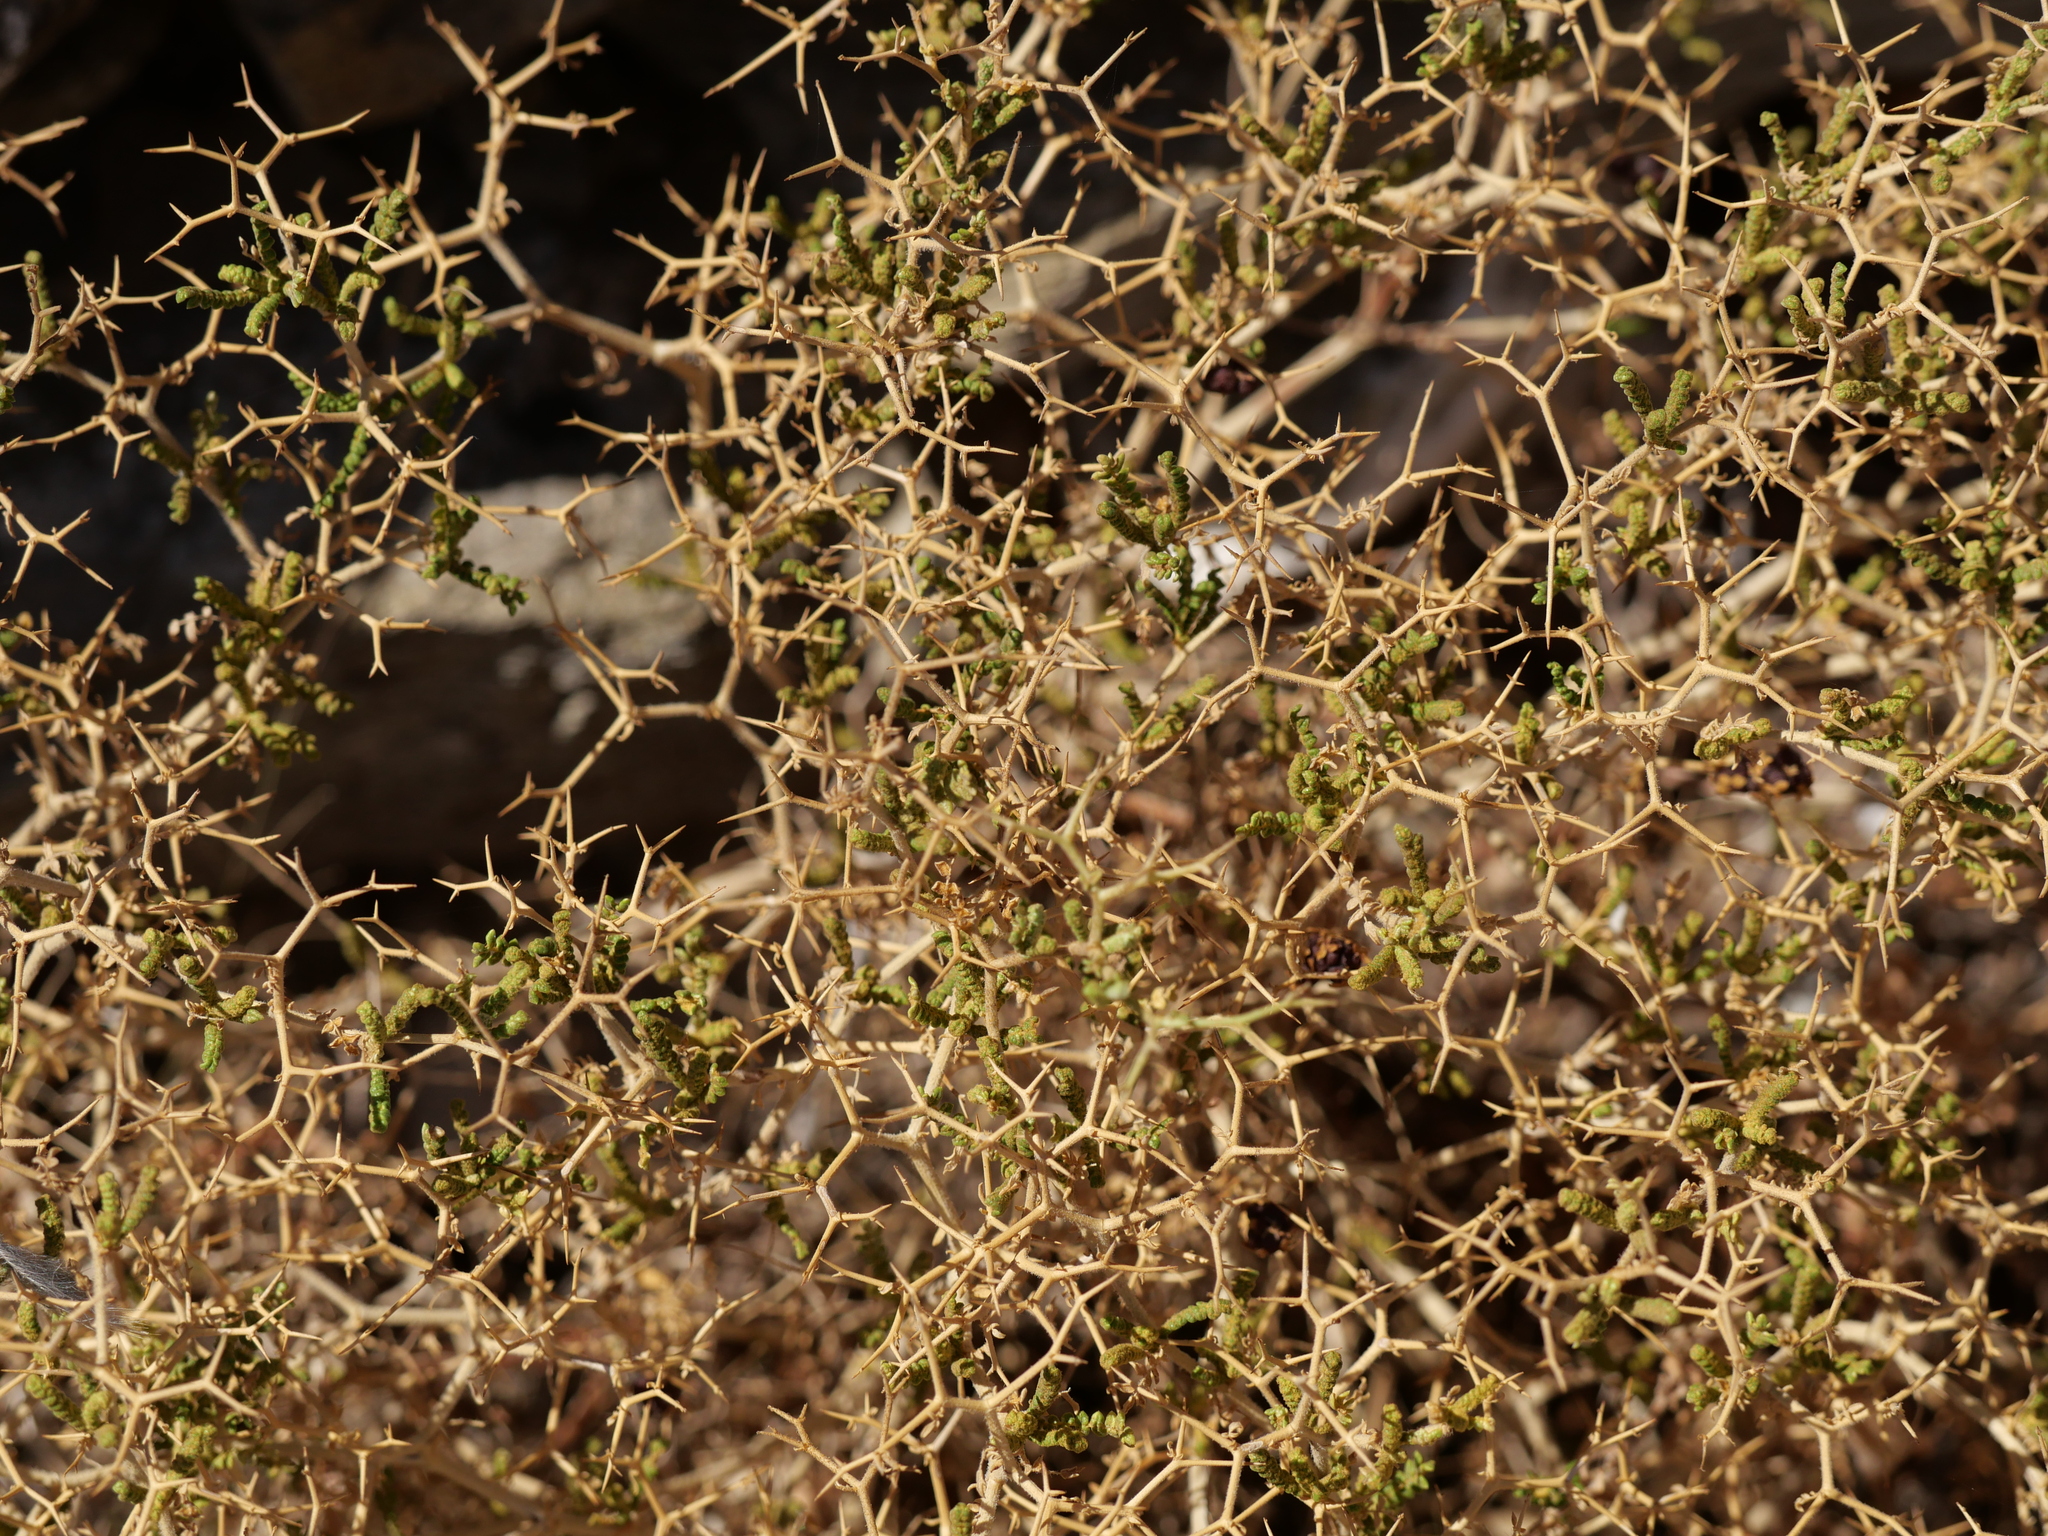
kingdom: Plantae
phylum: Tracheophyta
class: Magnoliopsida
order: Rosales
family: Rosaceae
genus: Sarcopoterium
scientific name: Sarcopoterium spinosum
